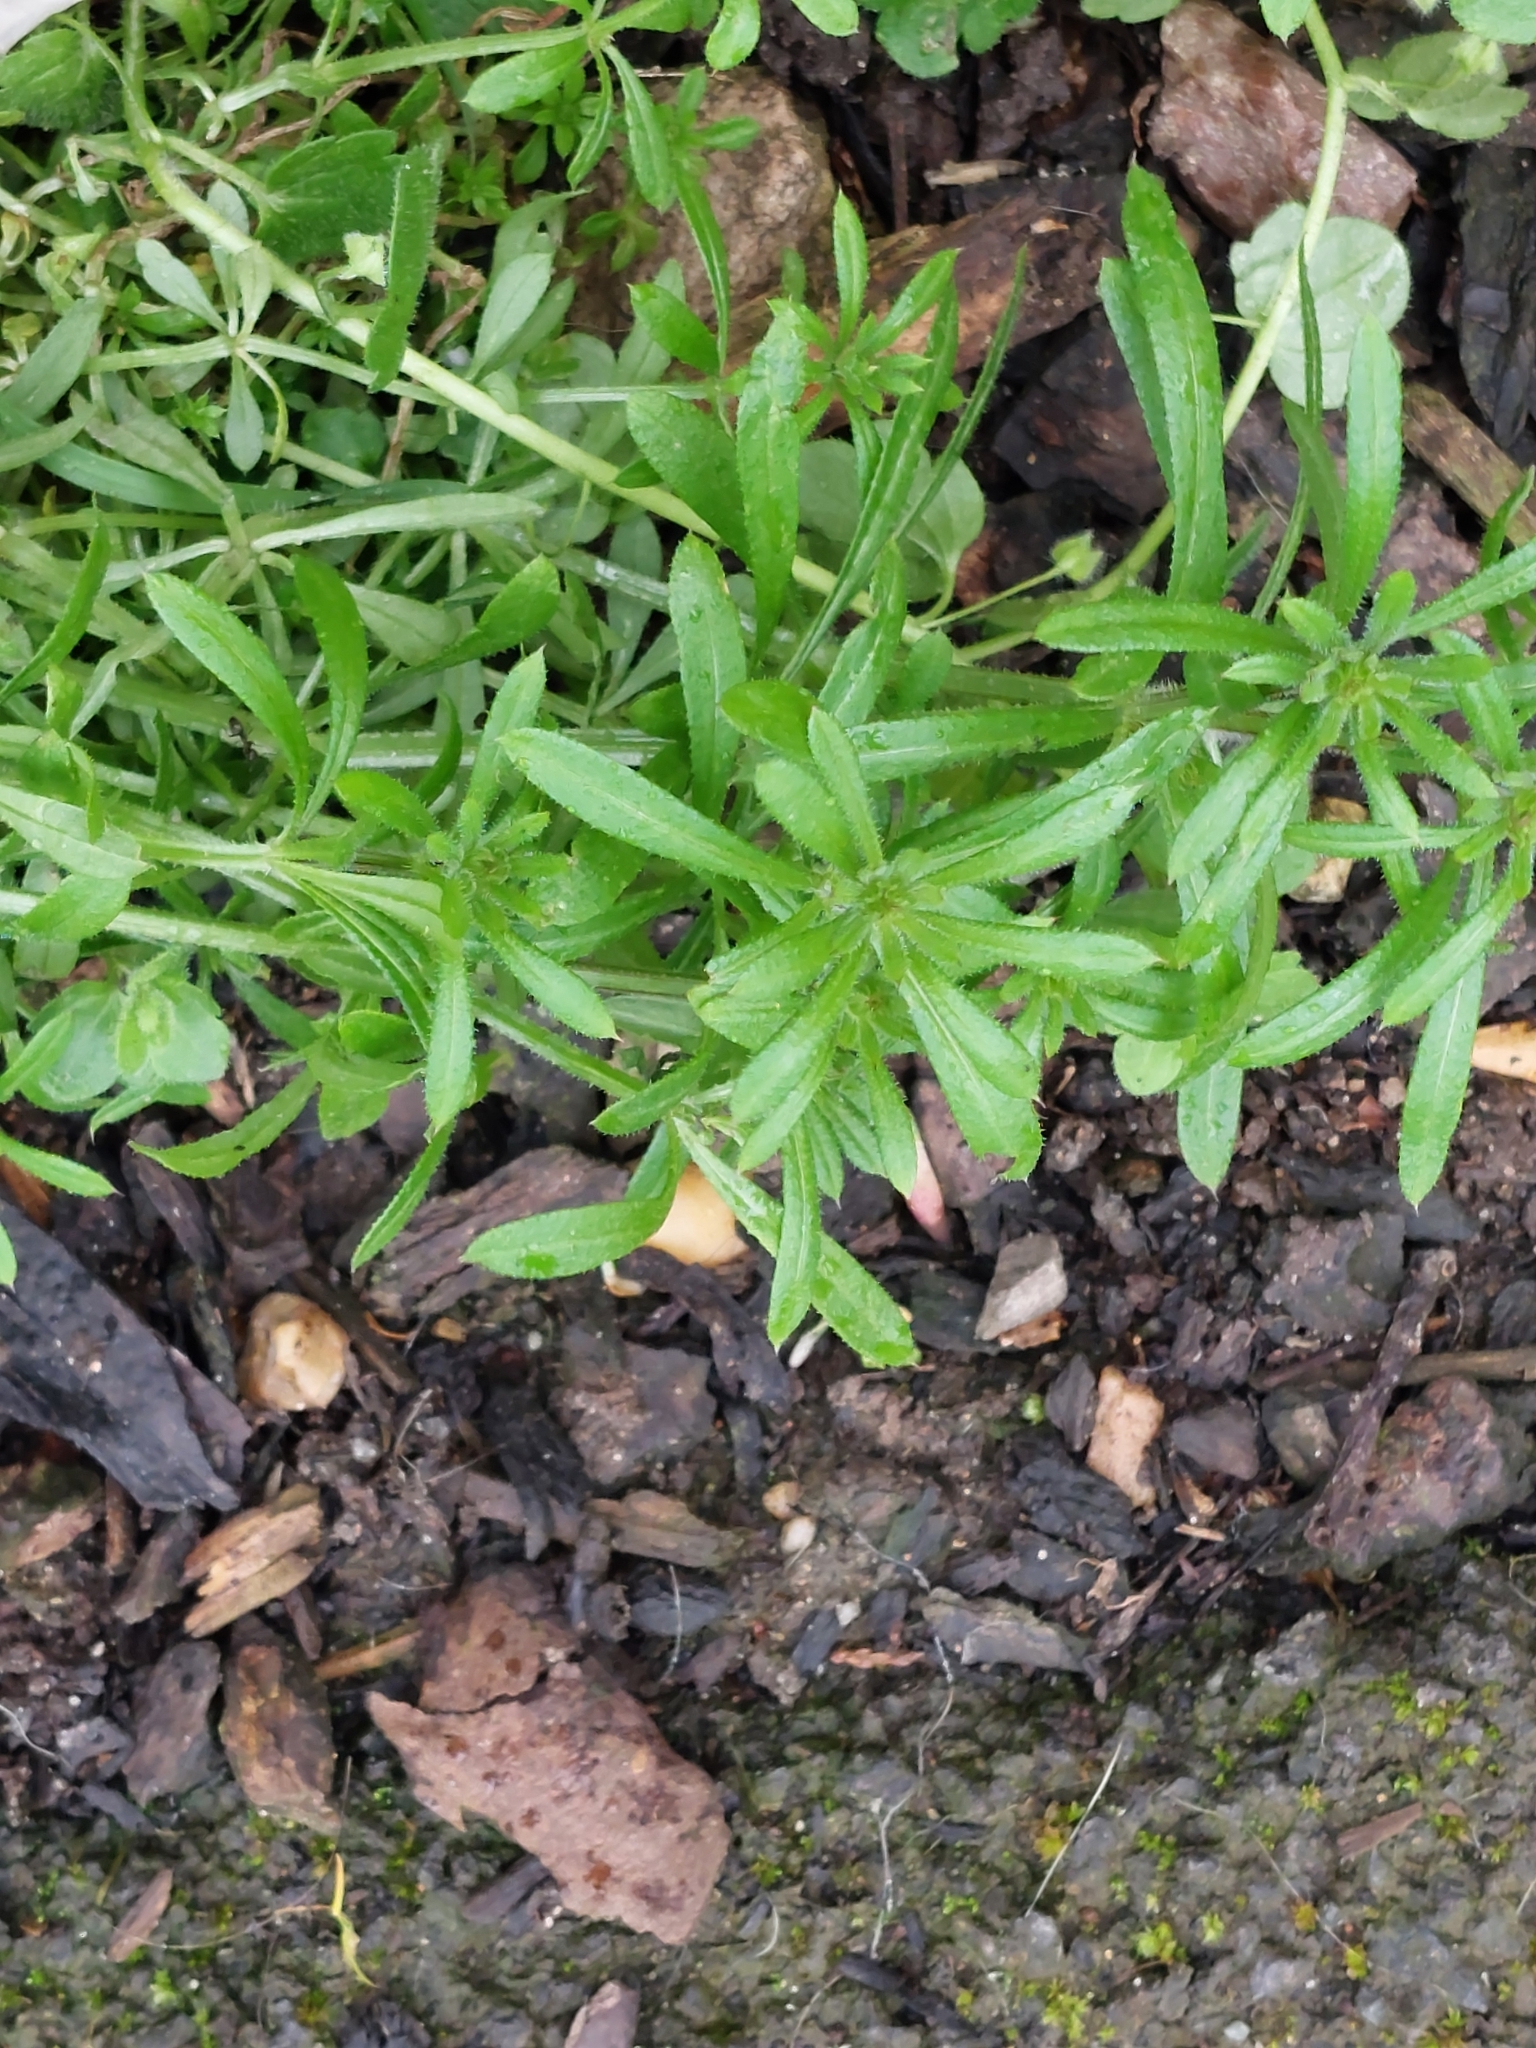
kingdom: Plantae
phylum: Tracheophyta
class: Magnoliopsida
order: Gentianales
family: Rubiaceae
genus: Galium
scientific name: Galium aparine
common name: Cleavers
